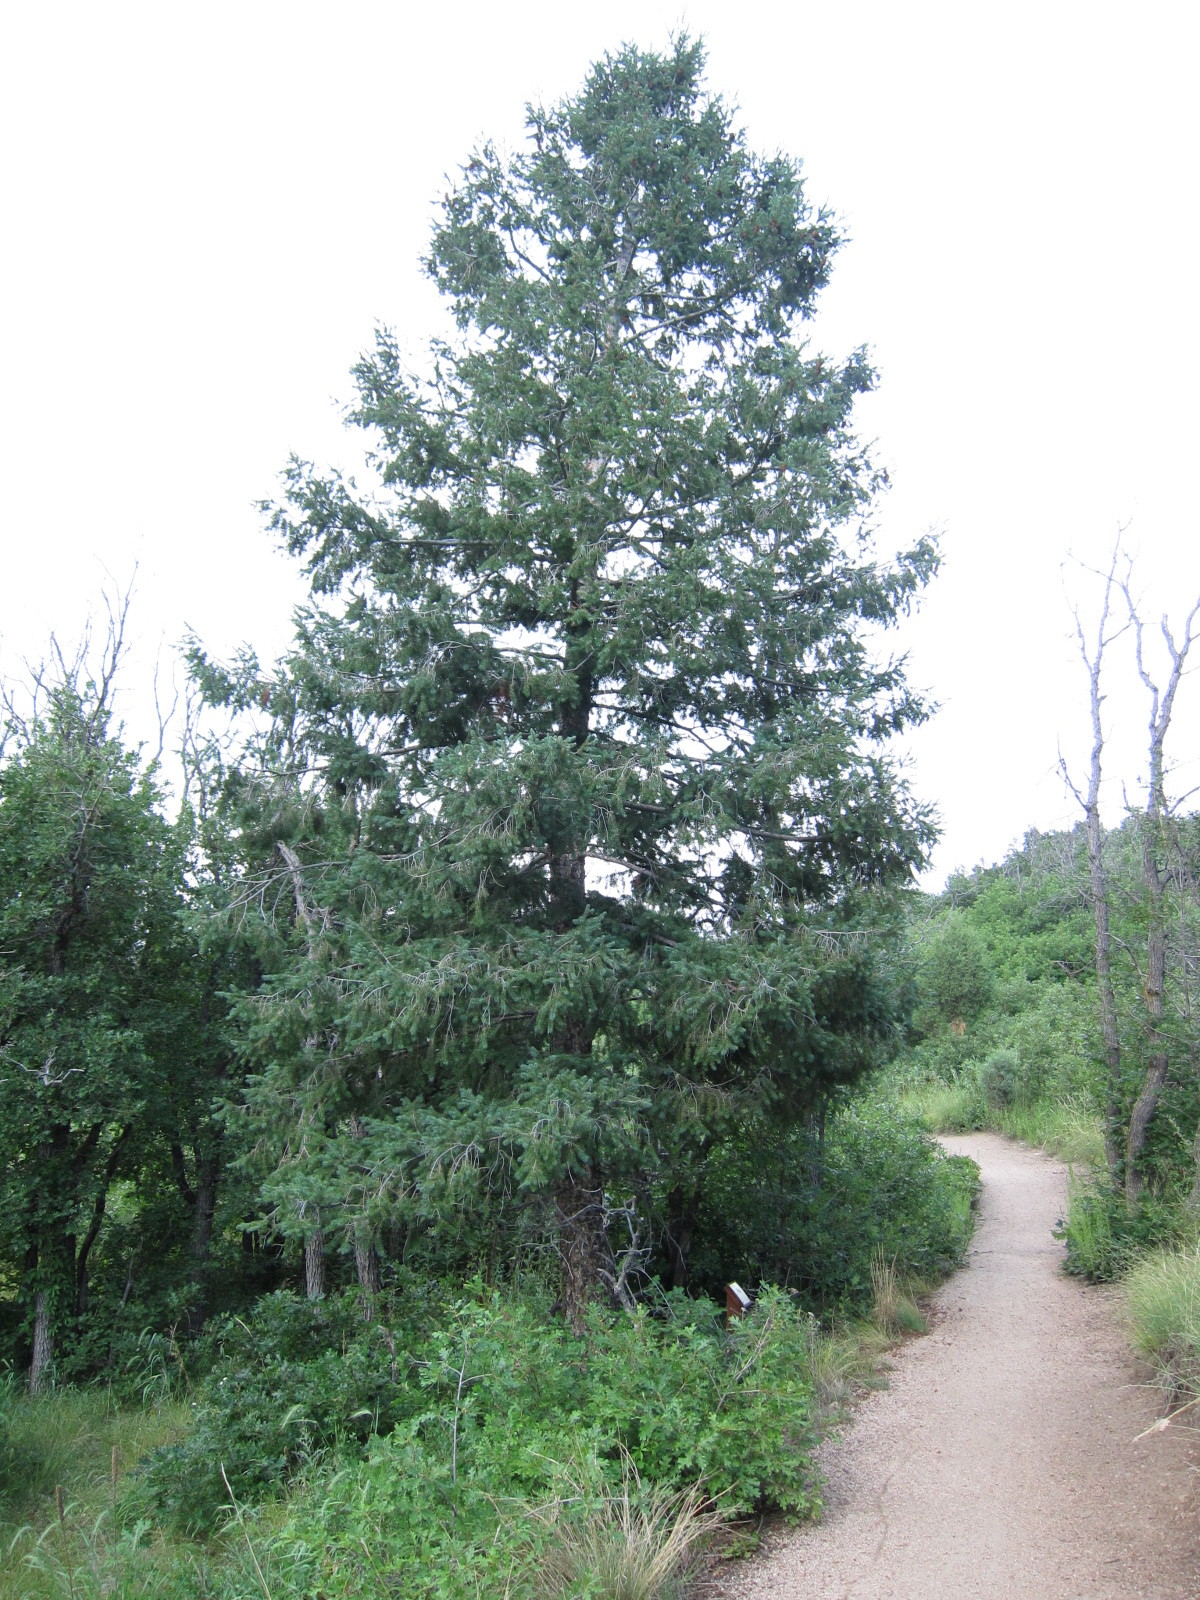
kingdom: Plantae
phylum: Tracheophyta
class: Pinopsida
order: Pinales
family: Pinaceae
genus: Pseudotsuga
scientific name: Pseudotsuga menziesii
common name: Douglas fir
